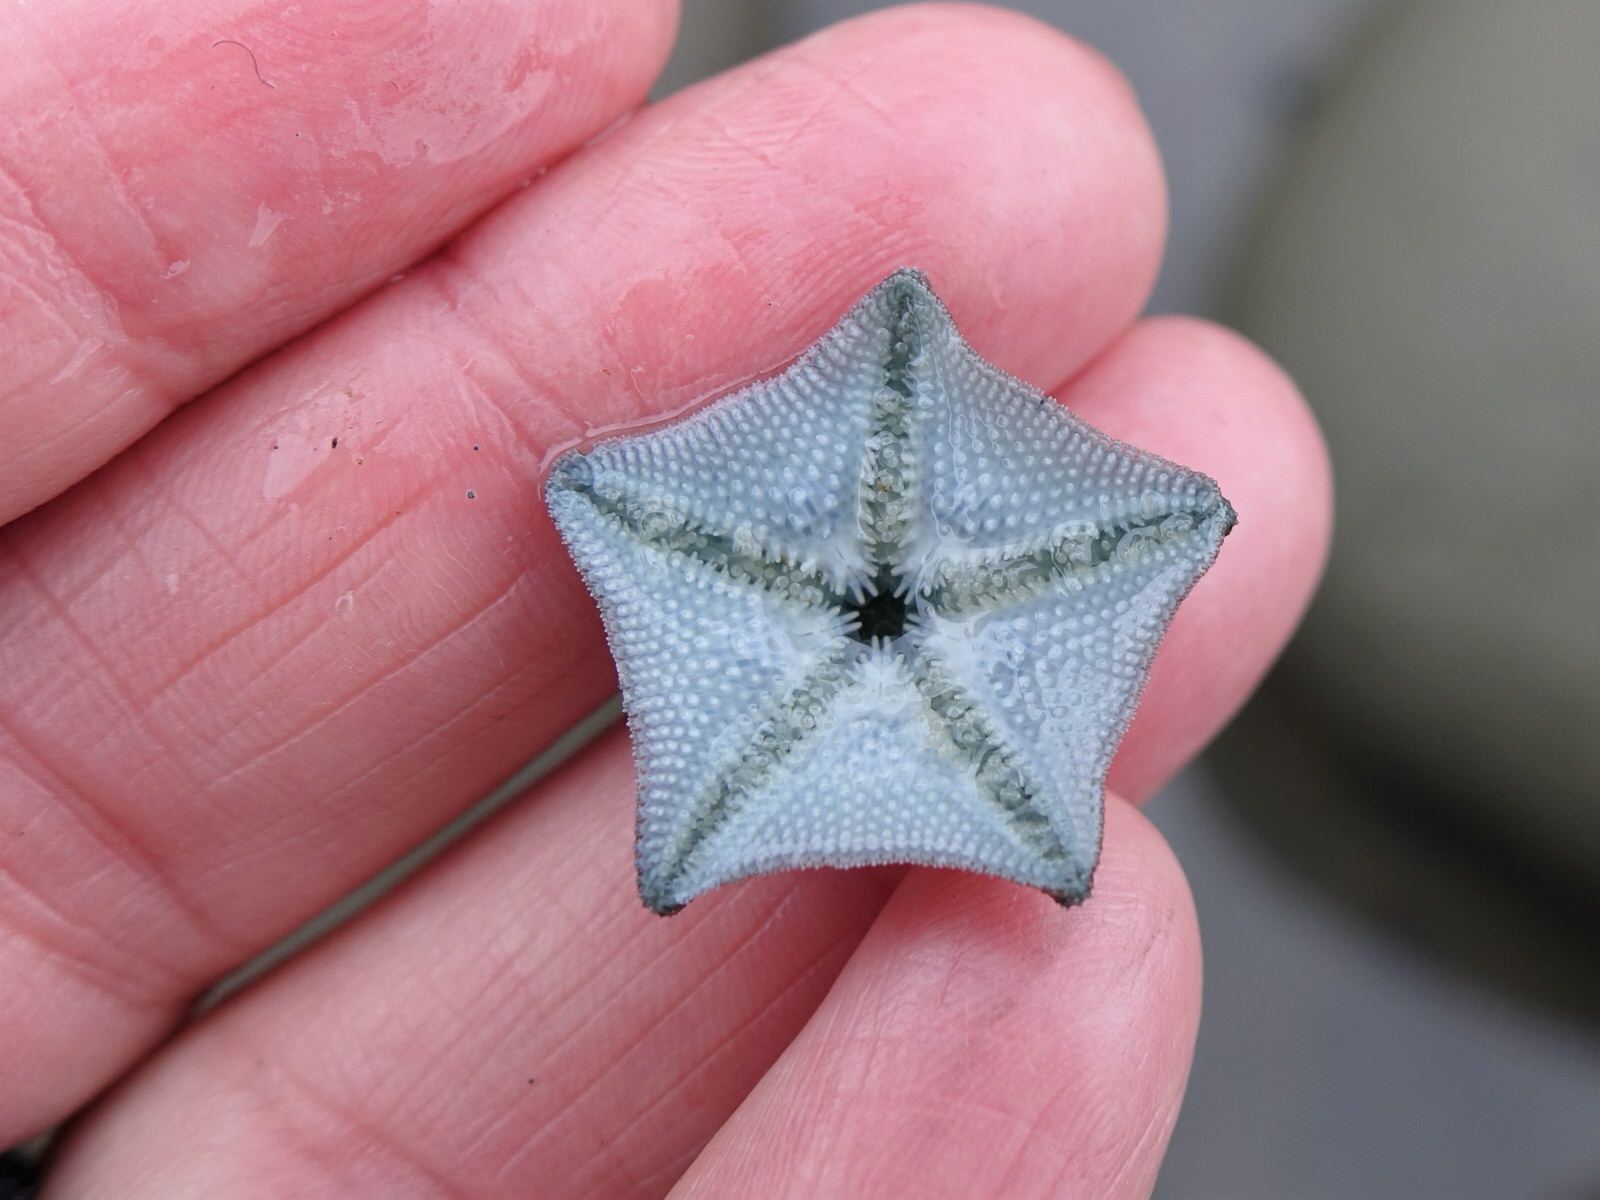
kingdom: Animalia
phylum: Echinodermata
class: Asteroidea
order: Valvatida
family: Asterinidae
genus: Patiriella
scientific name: Patiriella regularis
